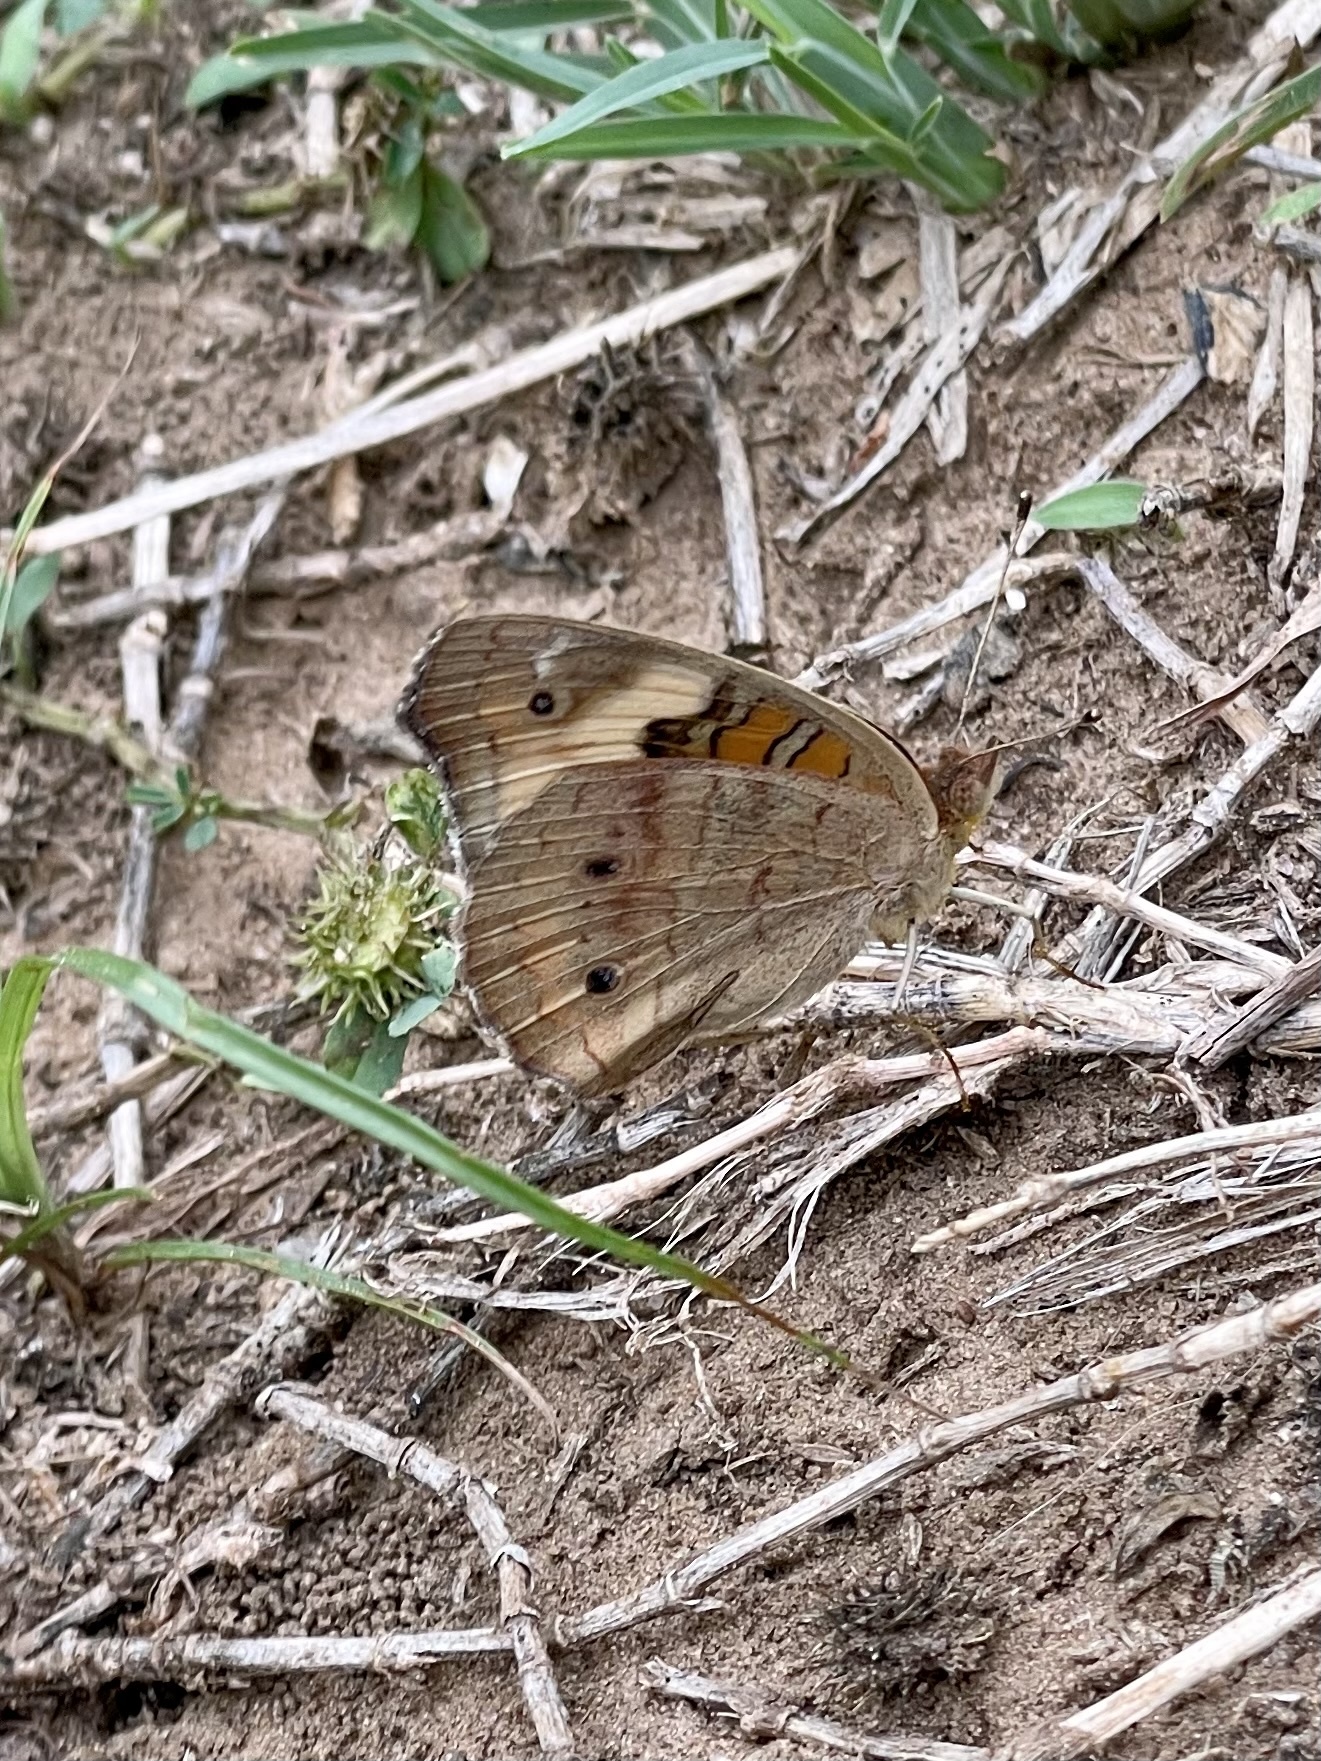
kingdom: Animalia
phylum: Arthropoda
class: Insecta
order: Lepidoptera
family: Nymphalidae
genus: Junonia
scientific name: Junonia coenia
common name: Common buckeye
